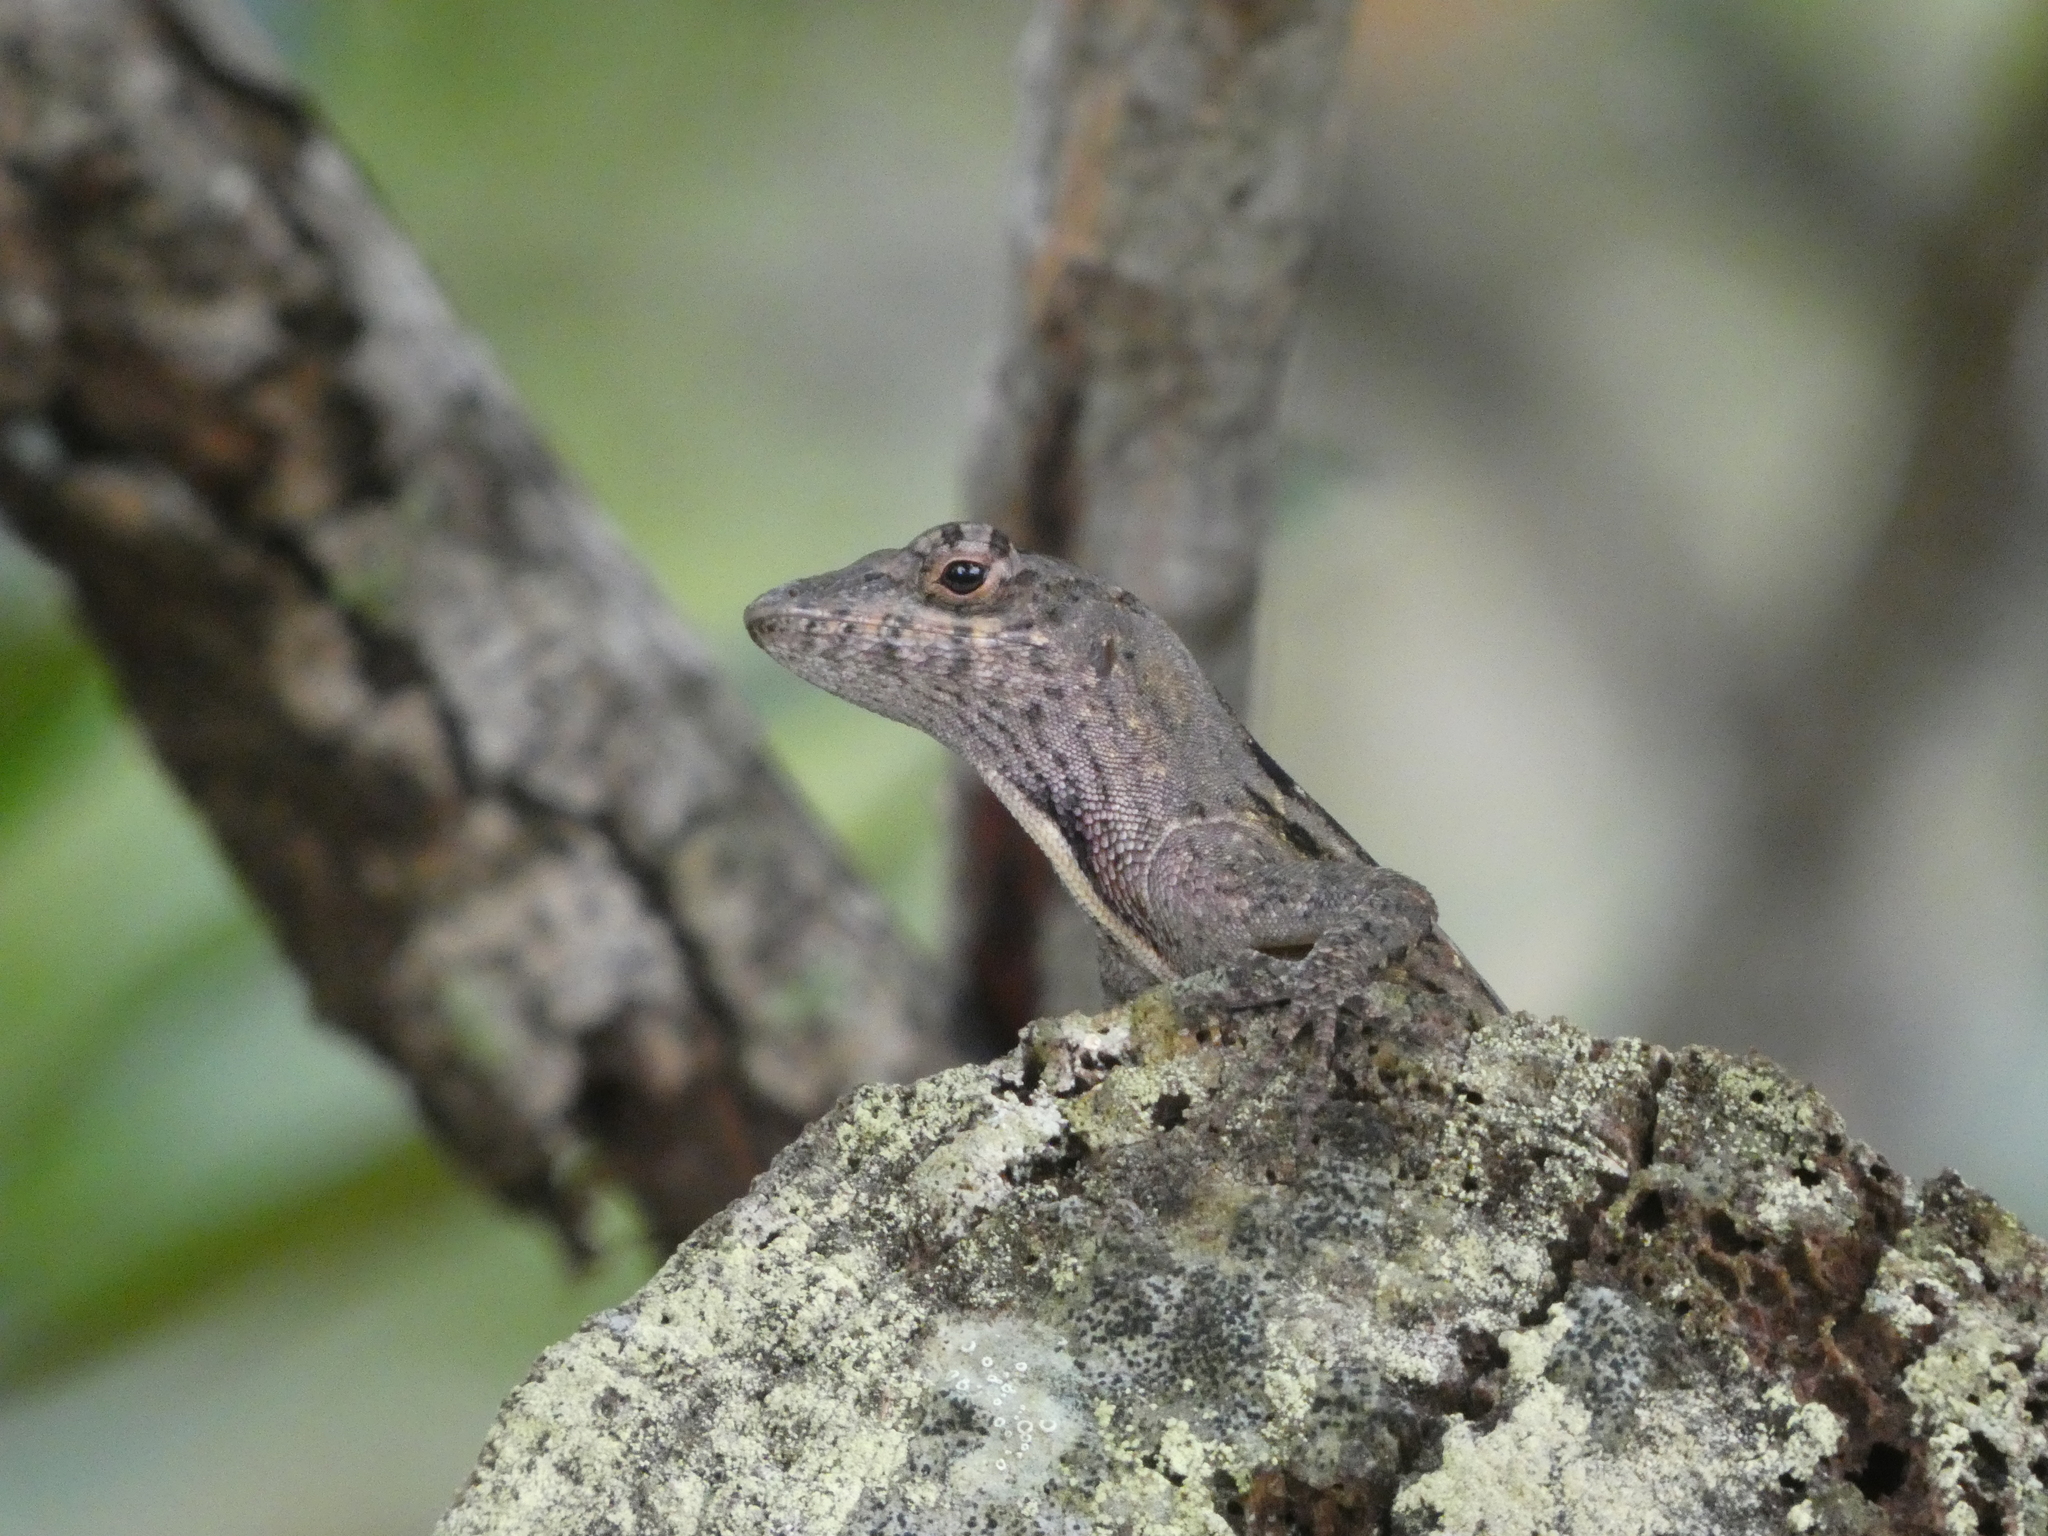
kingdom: Animalia
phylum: Chordata
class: Squamata
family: Dactyloidae
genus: Anolis
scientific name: Anolis sagrei
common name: Brown anole
